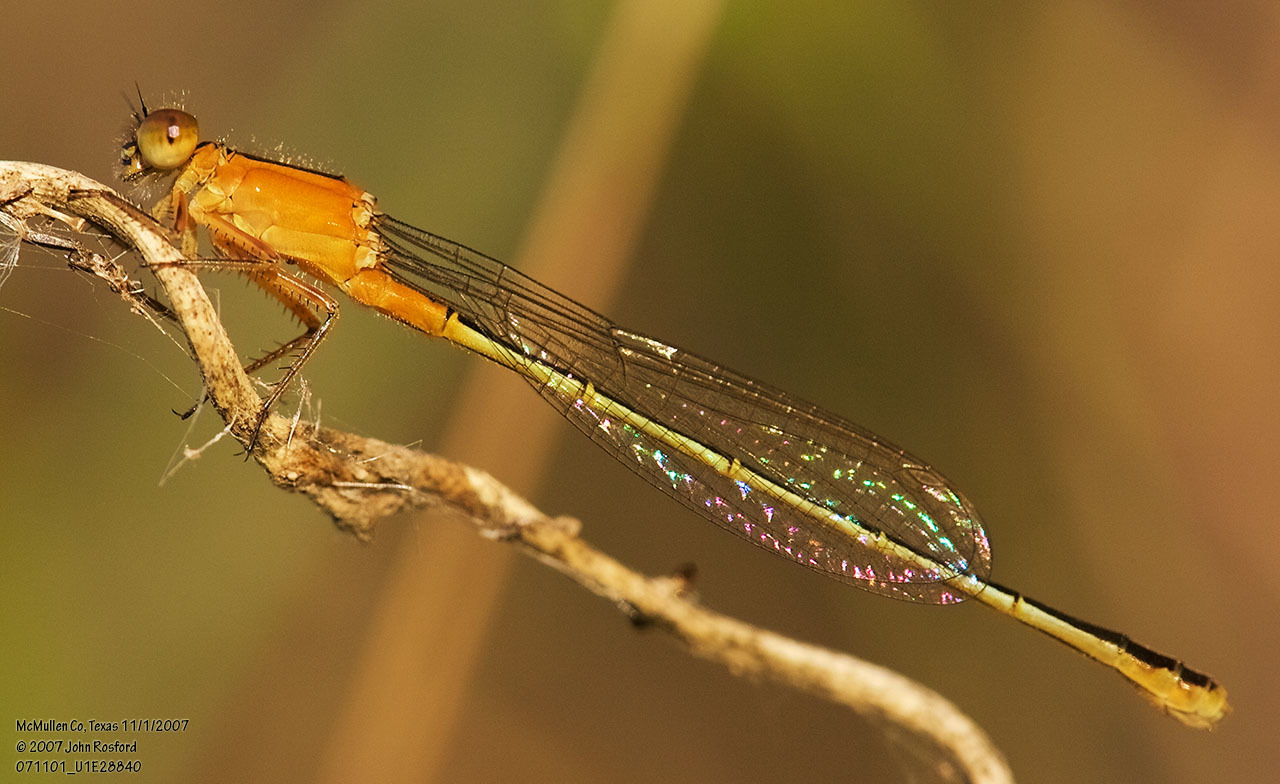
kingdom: Animalia
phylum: Arthropoda
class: Insecta
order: Odonata
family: Coenagrionidae
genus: Ischnura
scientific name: Ischnura ramburii
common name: Rambur's forktail
